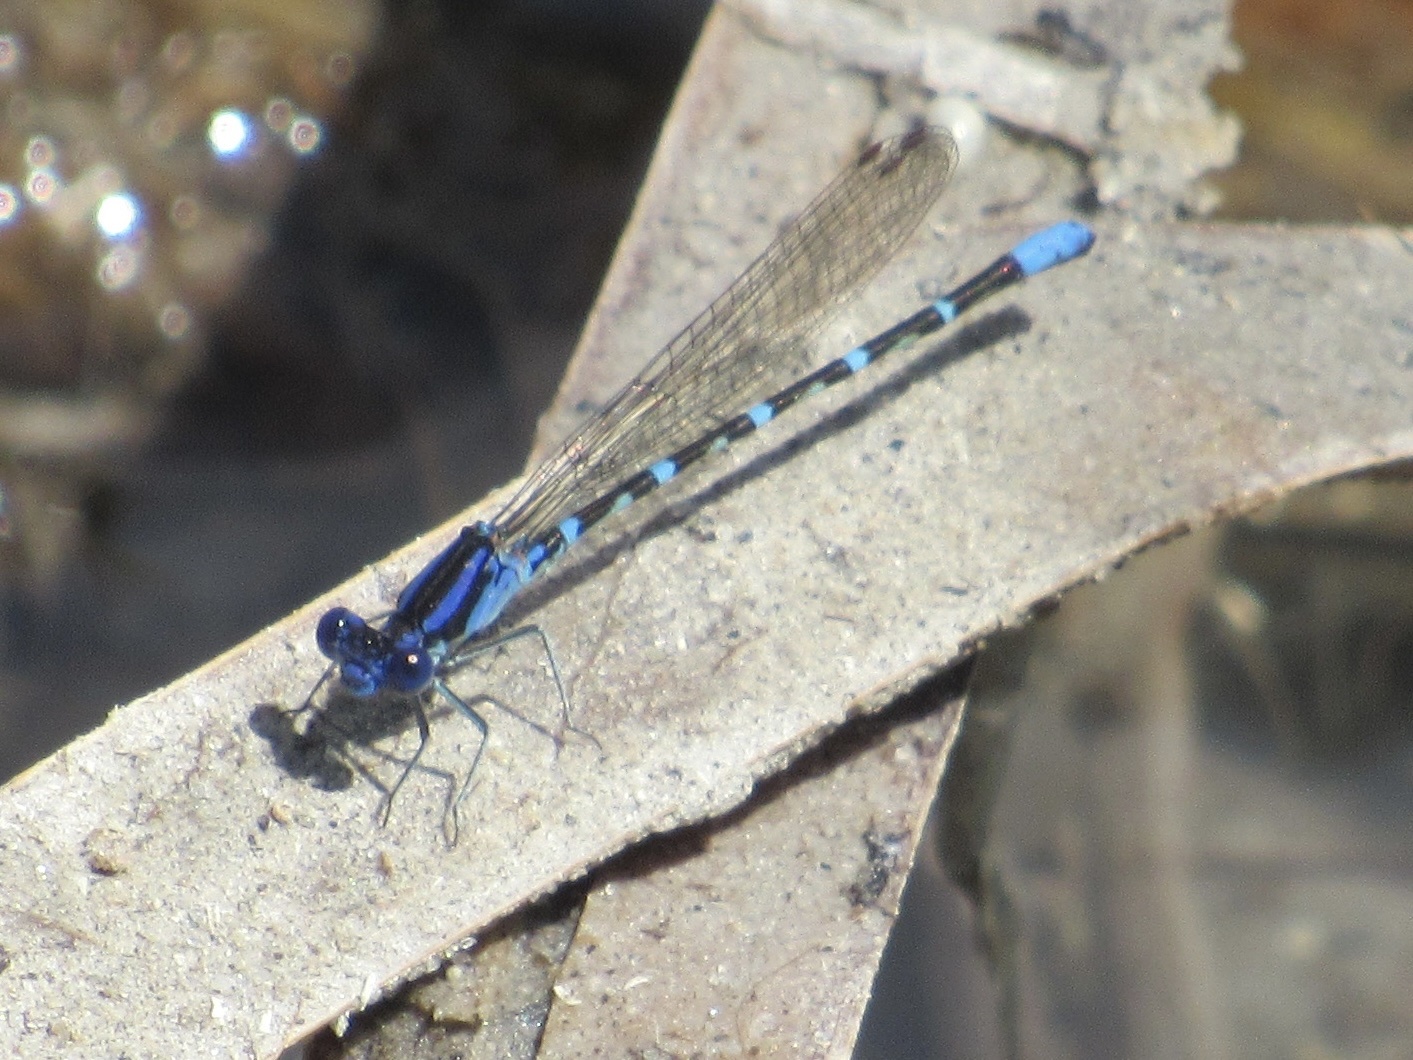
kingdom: Animalia
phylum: Arthropoda
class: Insecta
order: Odonata
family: Coenagrionidae
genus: Argia
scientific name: Argia sedula
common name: Blue-ringed dancer
